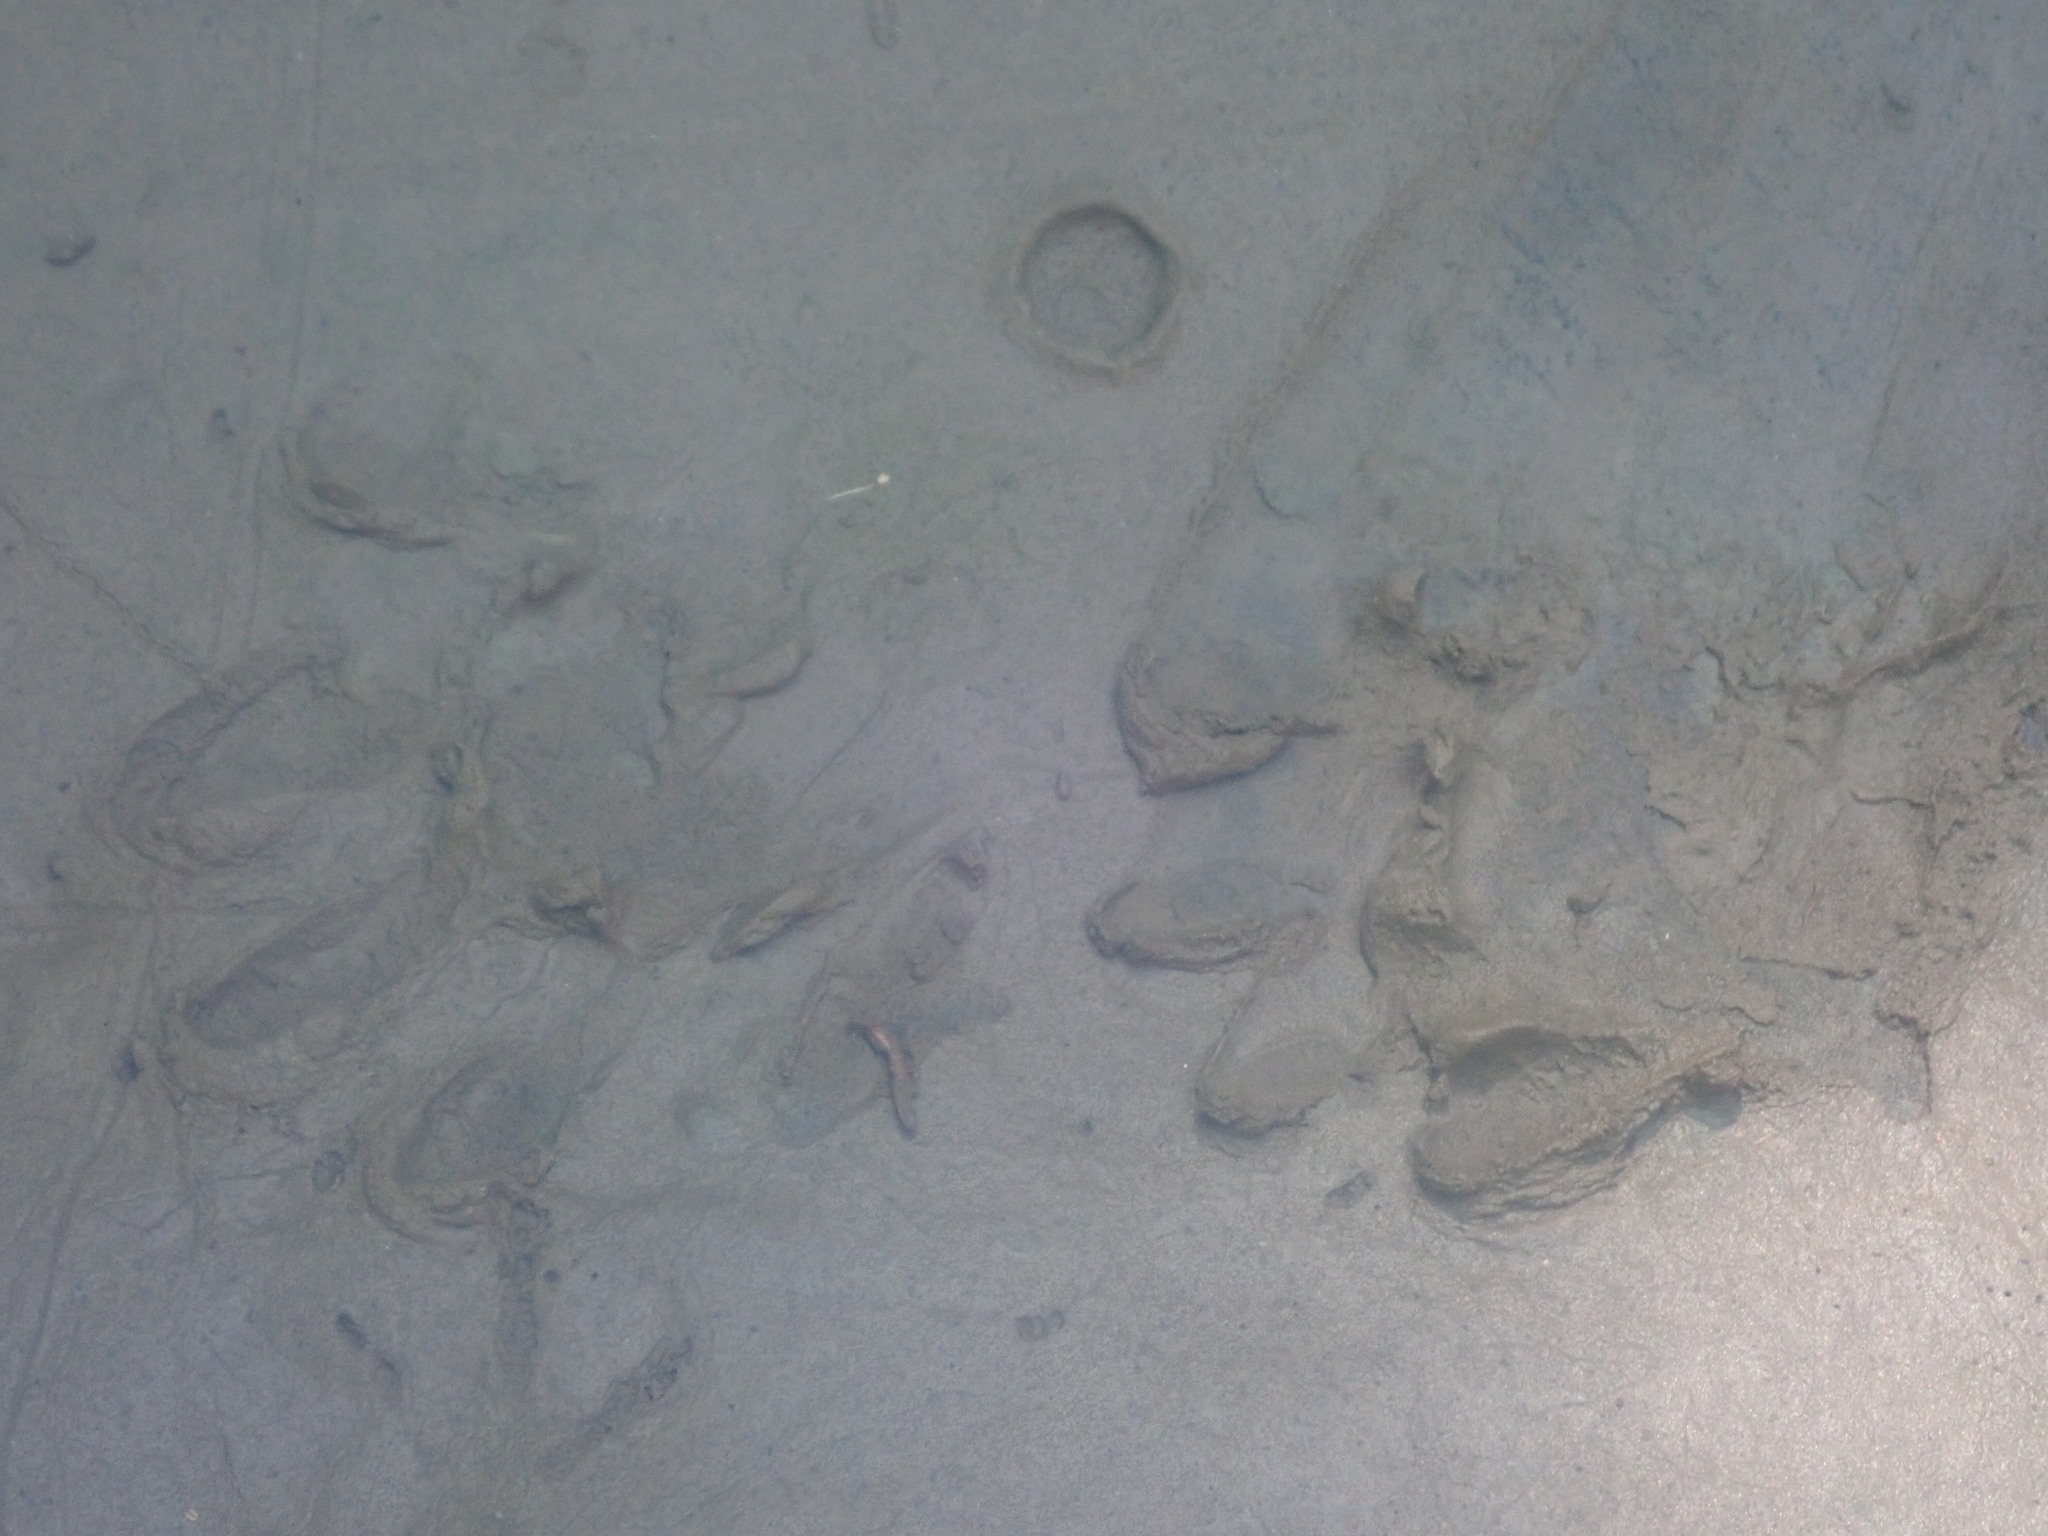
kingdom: Animalia
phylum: Chordata
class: Mammalia
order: Carnivora
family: Procyonidae
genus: Procyon
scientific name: Procyon lotor
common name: Raccoon
